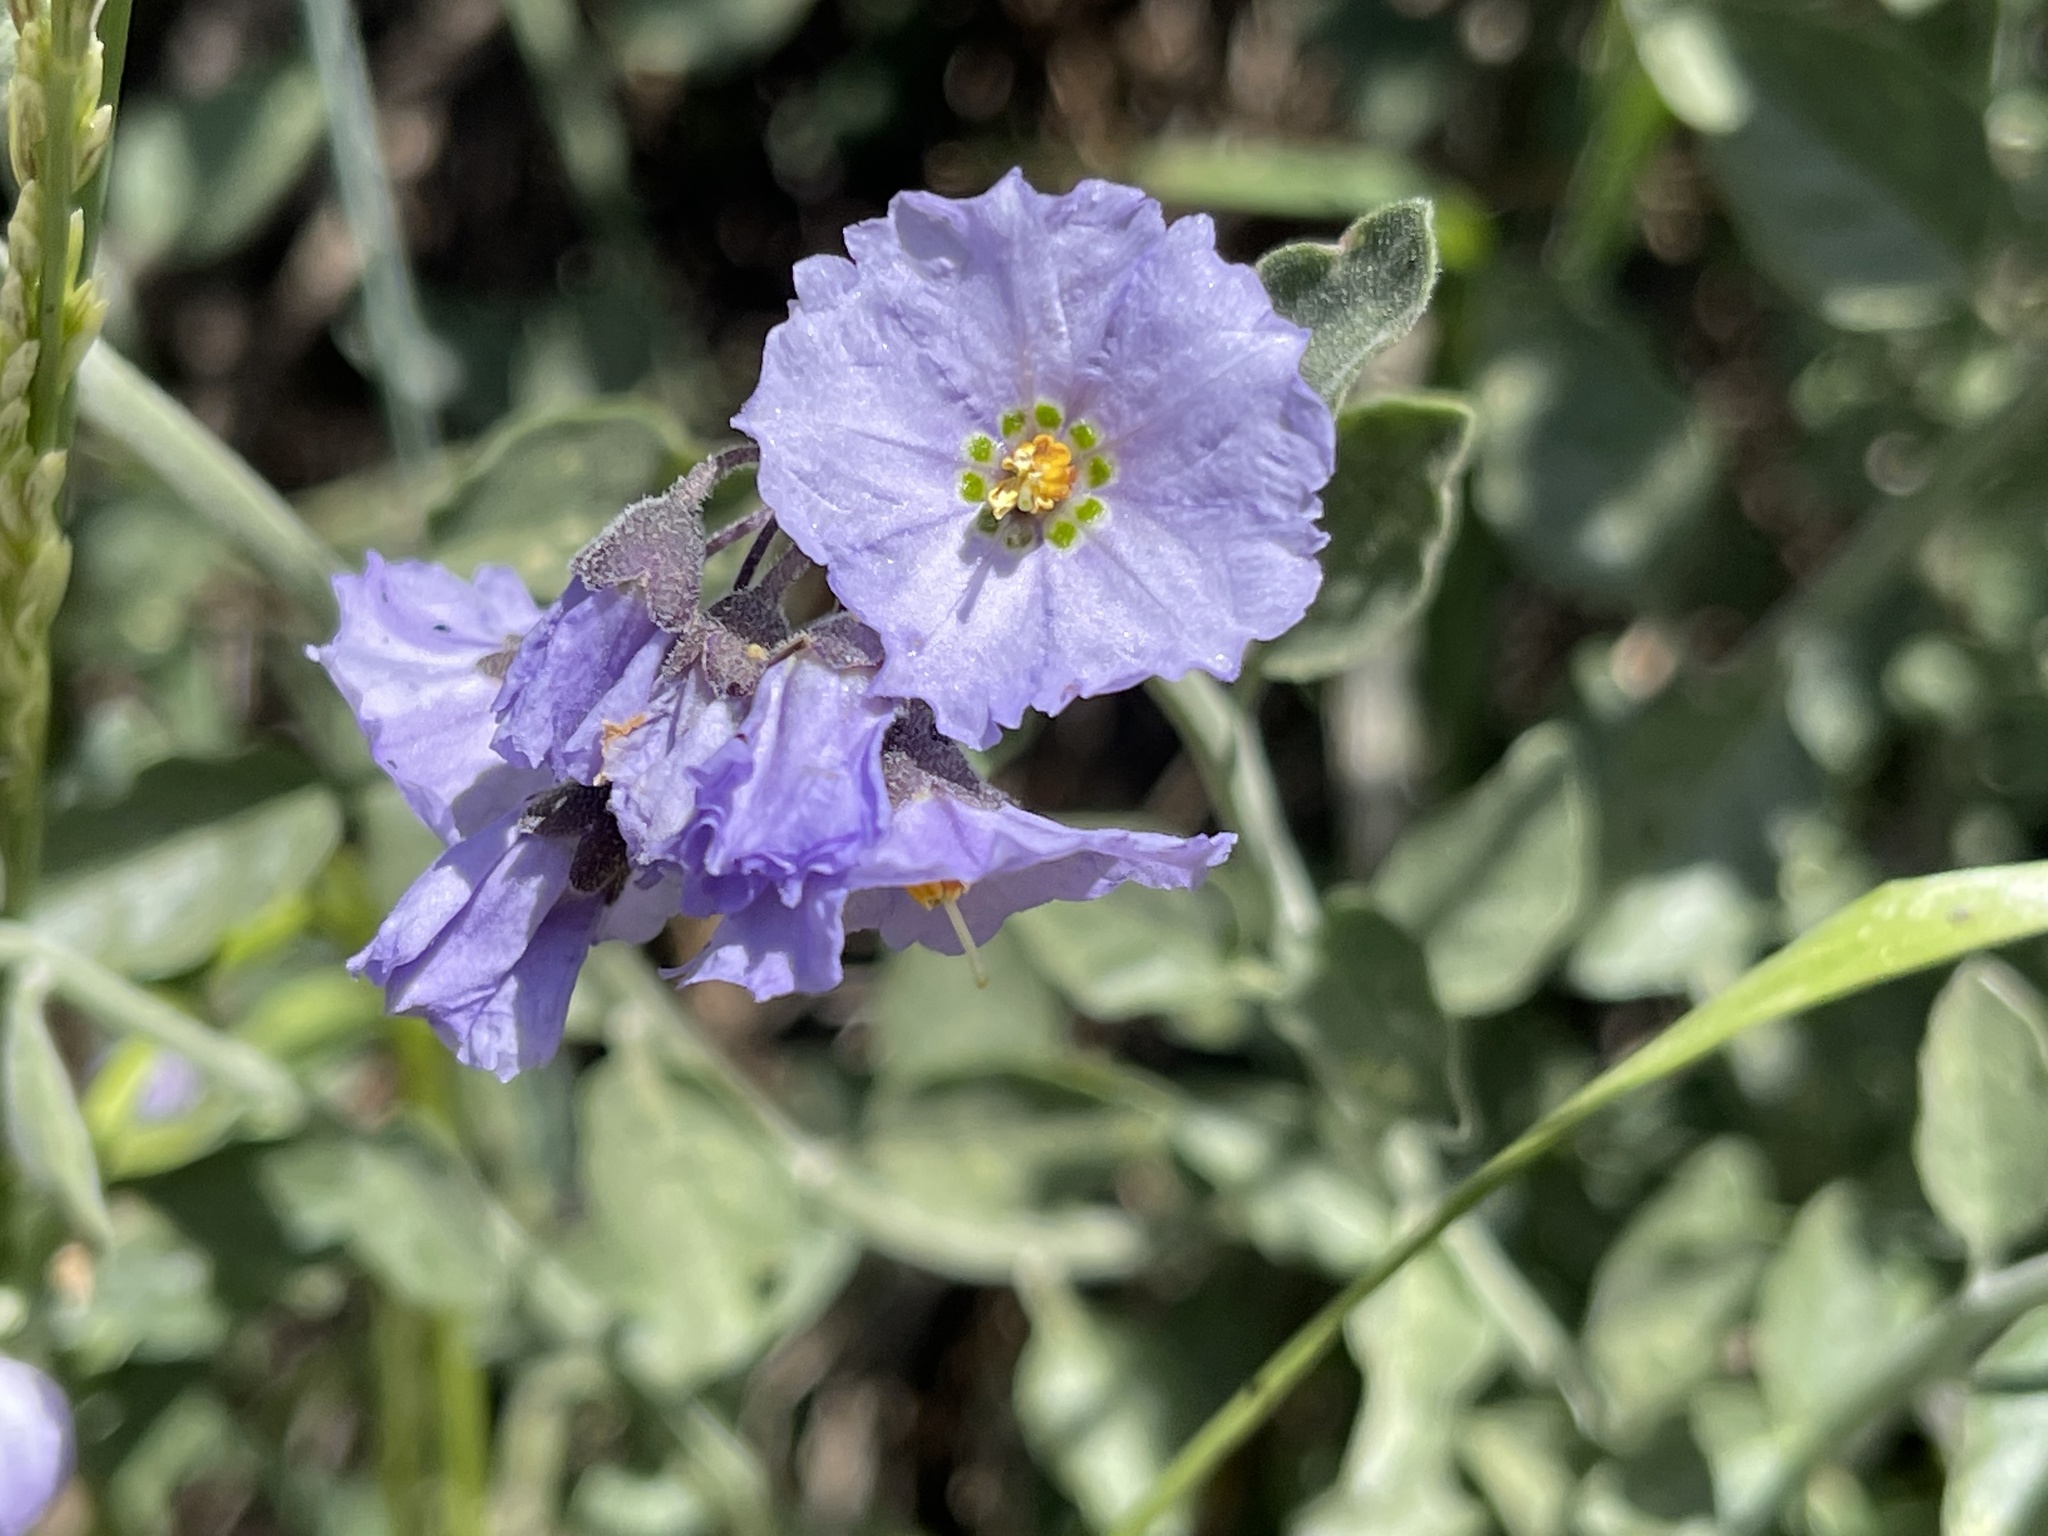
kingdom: Plantae
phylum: Tracheophyta
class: Magnoliopsida
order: Solanales
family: Solanaceae
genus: Solanum
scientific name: Solanum umbelliferum
